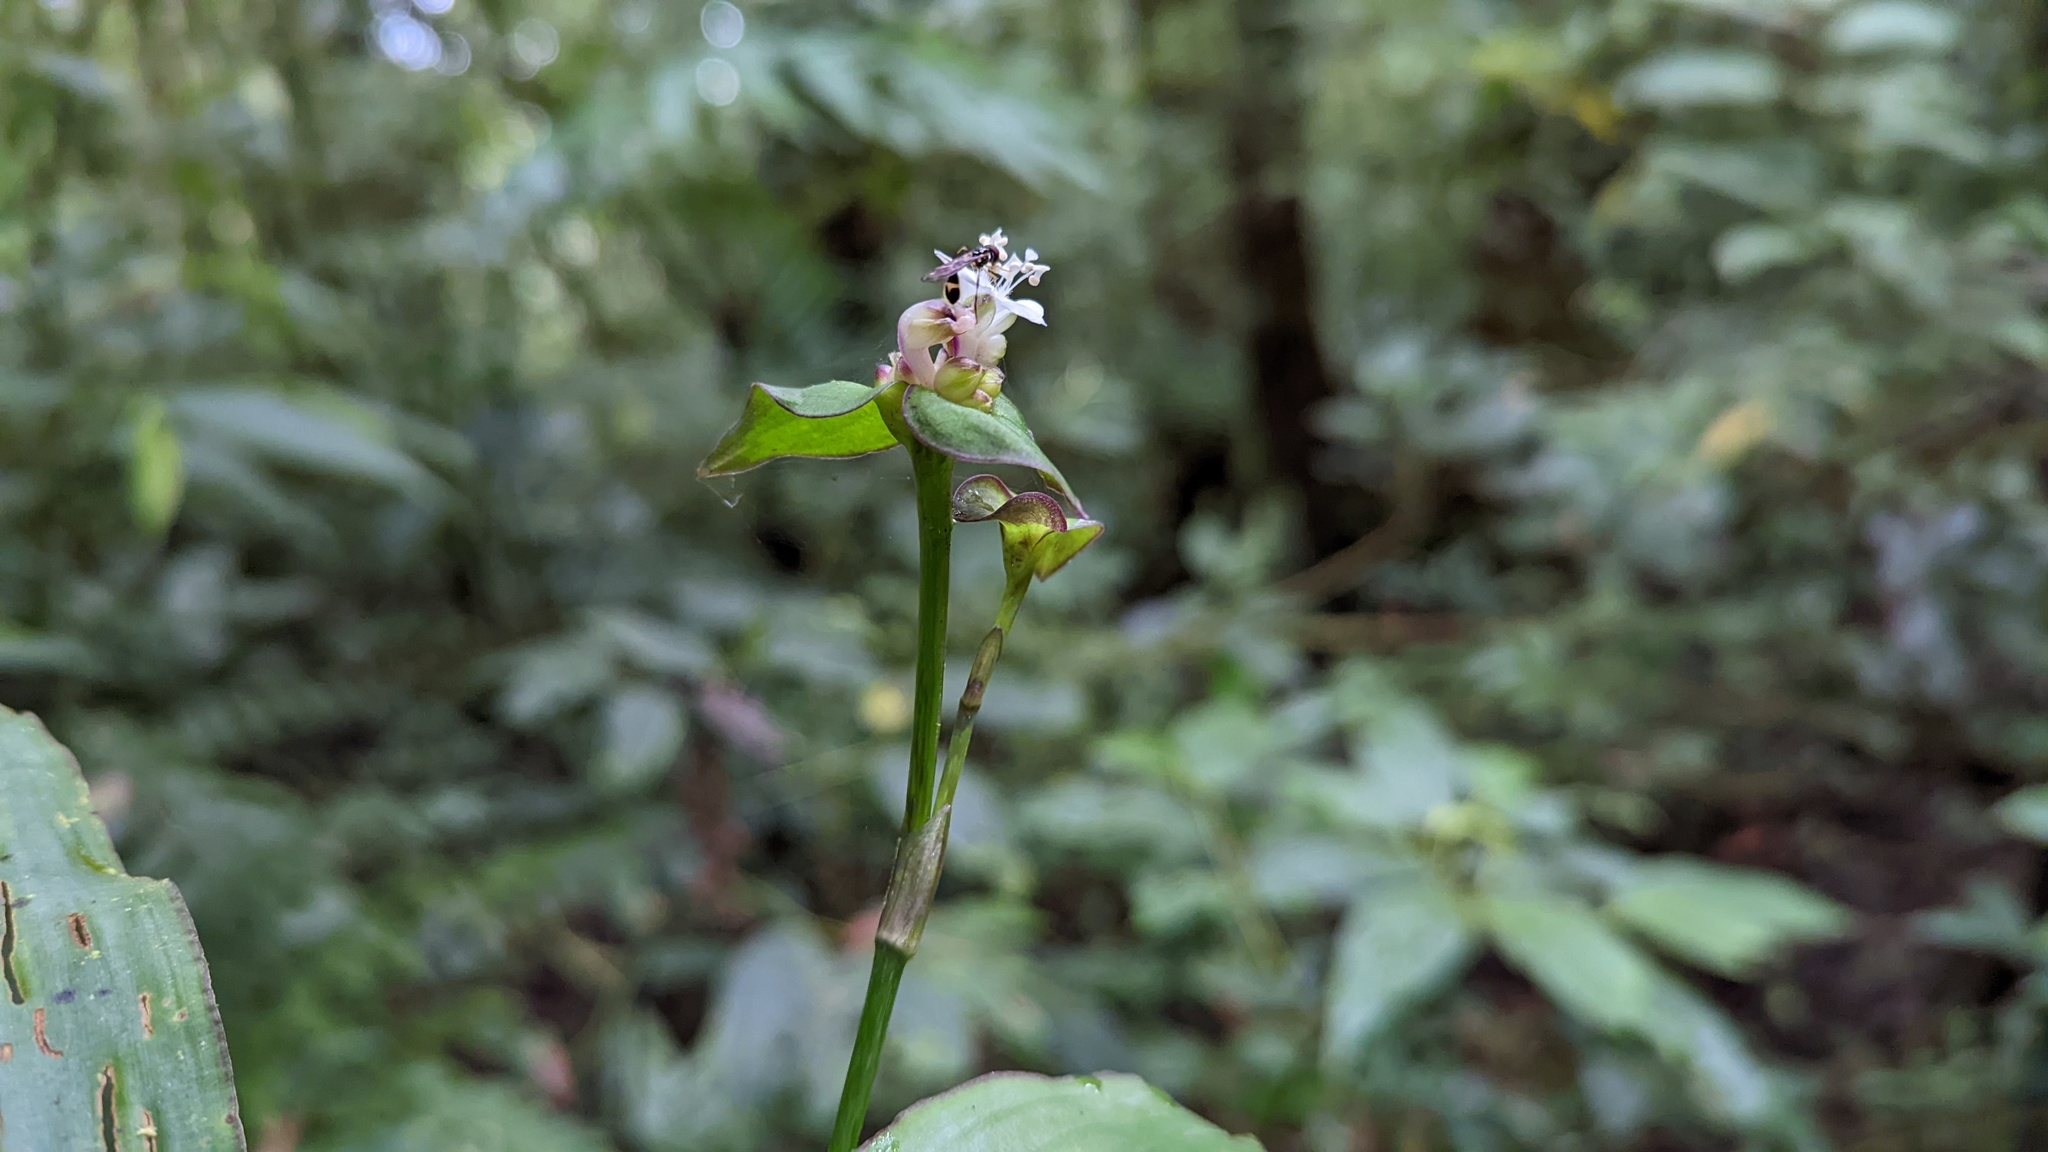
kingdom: Plantae
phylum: Tracheophyta
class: Liliopsida
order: Commelinales
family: Commelinaceae
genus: Tradescantia
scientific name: Tradescantia zanonia
